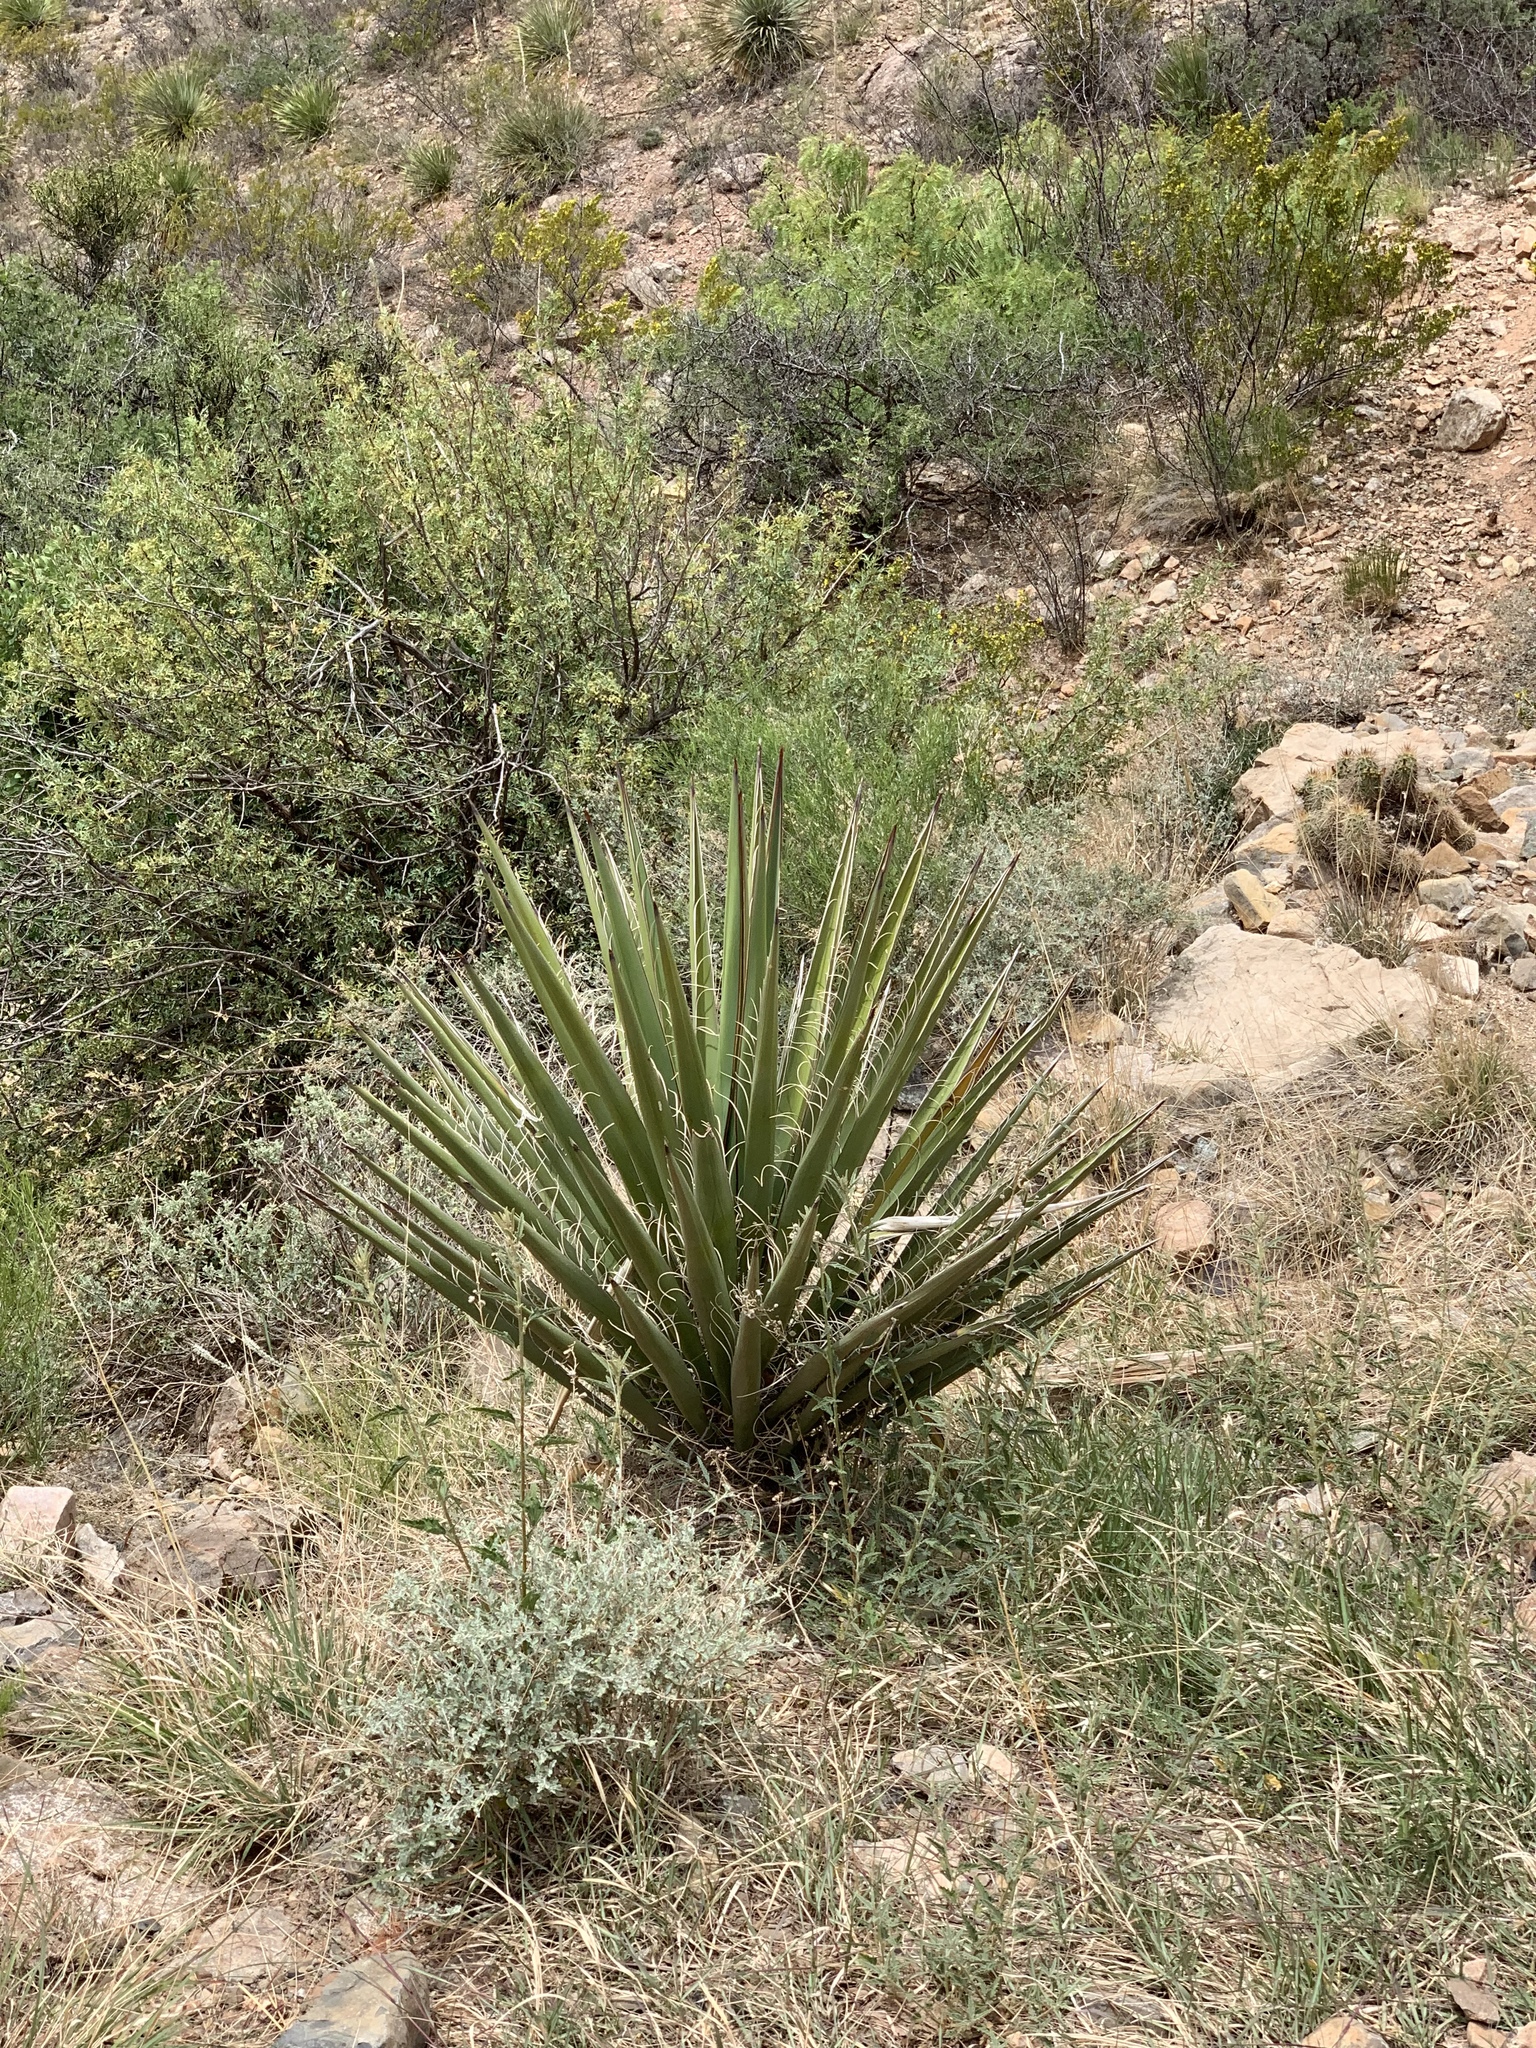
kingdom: Plantae
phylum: Tracheophyta
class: Liliopsida
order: Asparagales
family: Asparagaceae
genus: Yucca
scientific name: Yucca baccata
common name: Banana yucca
